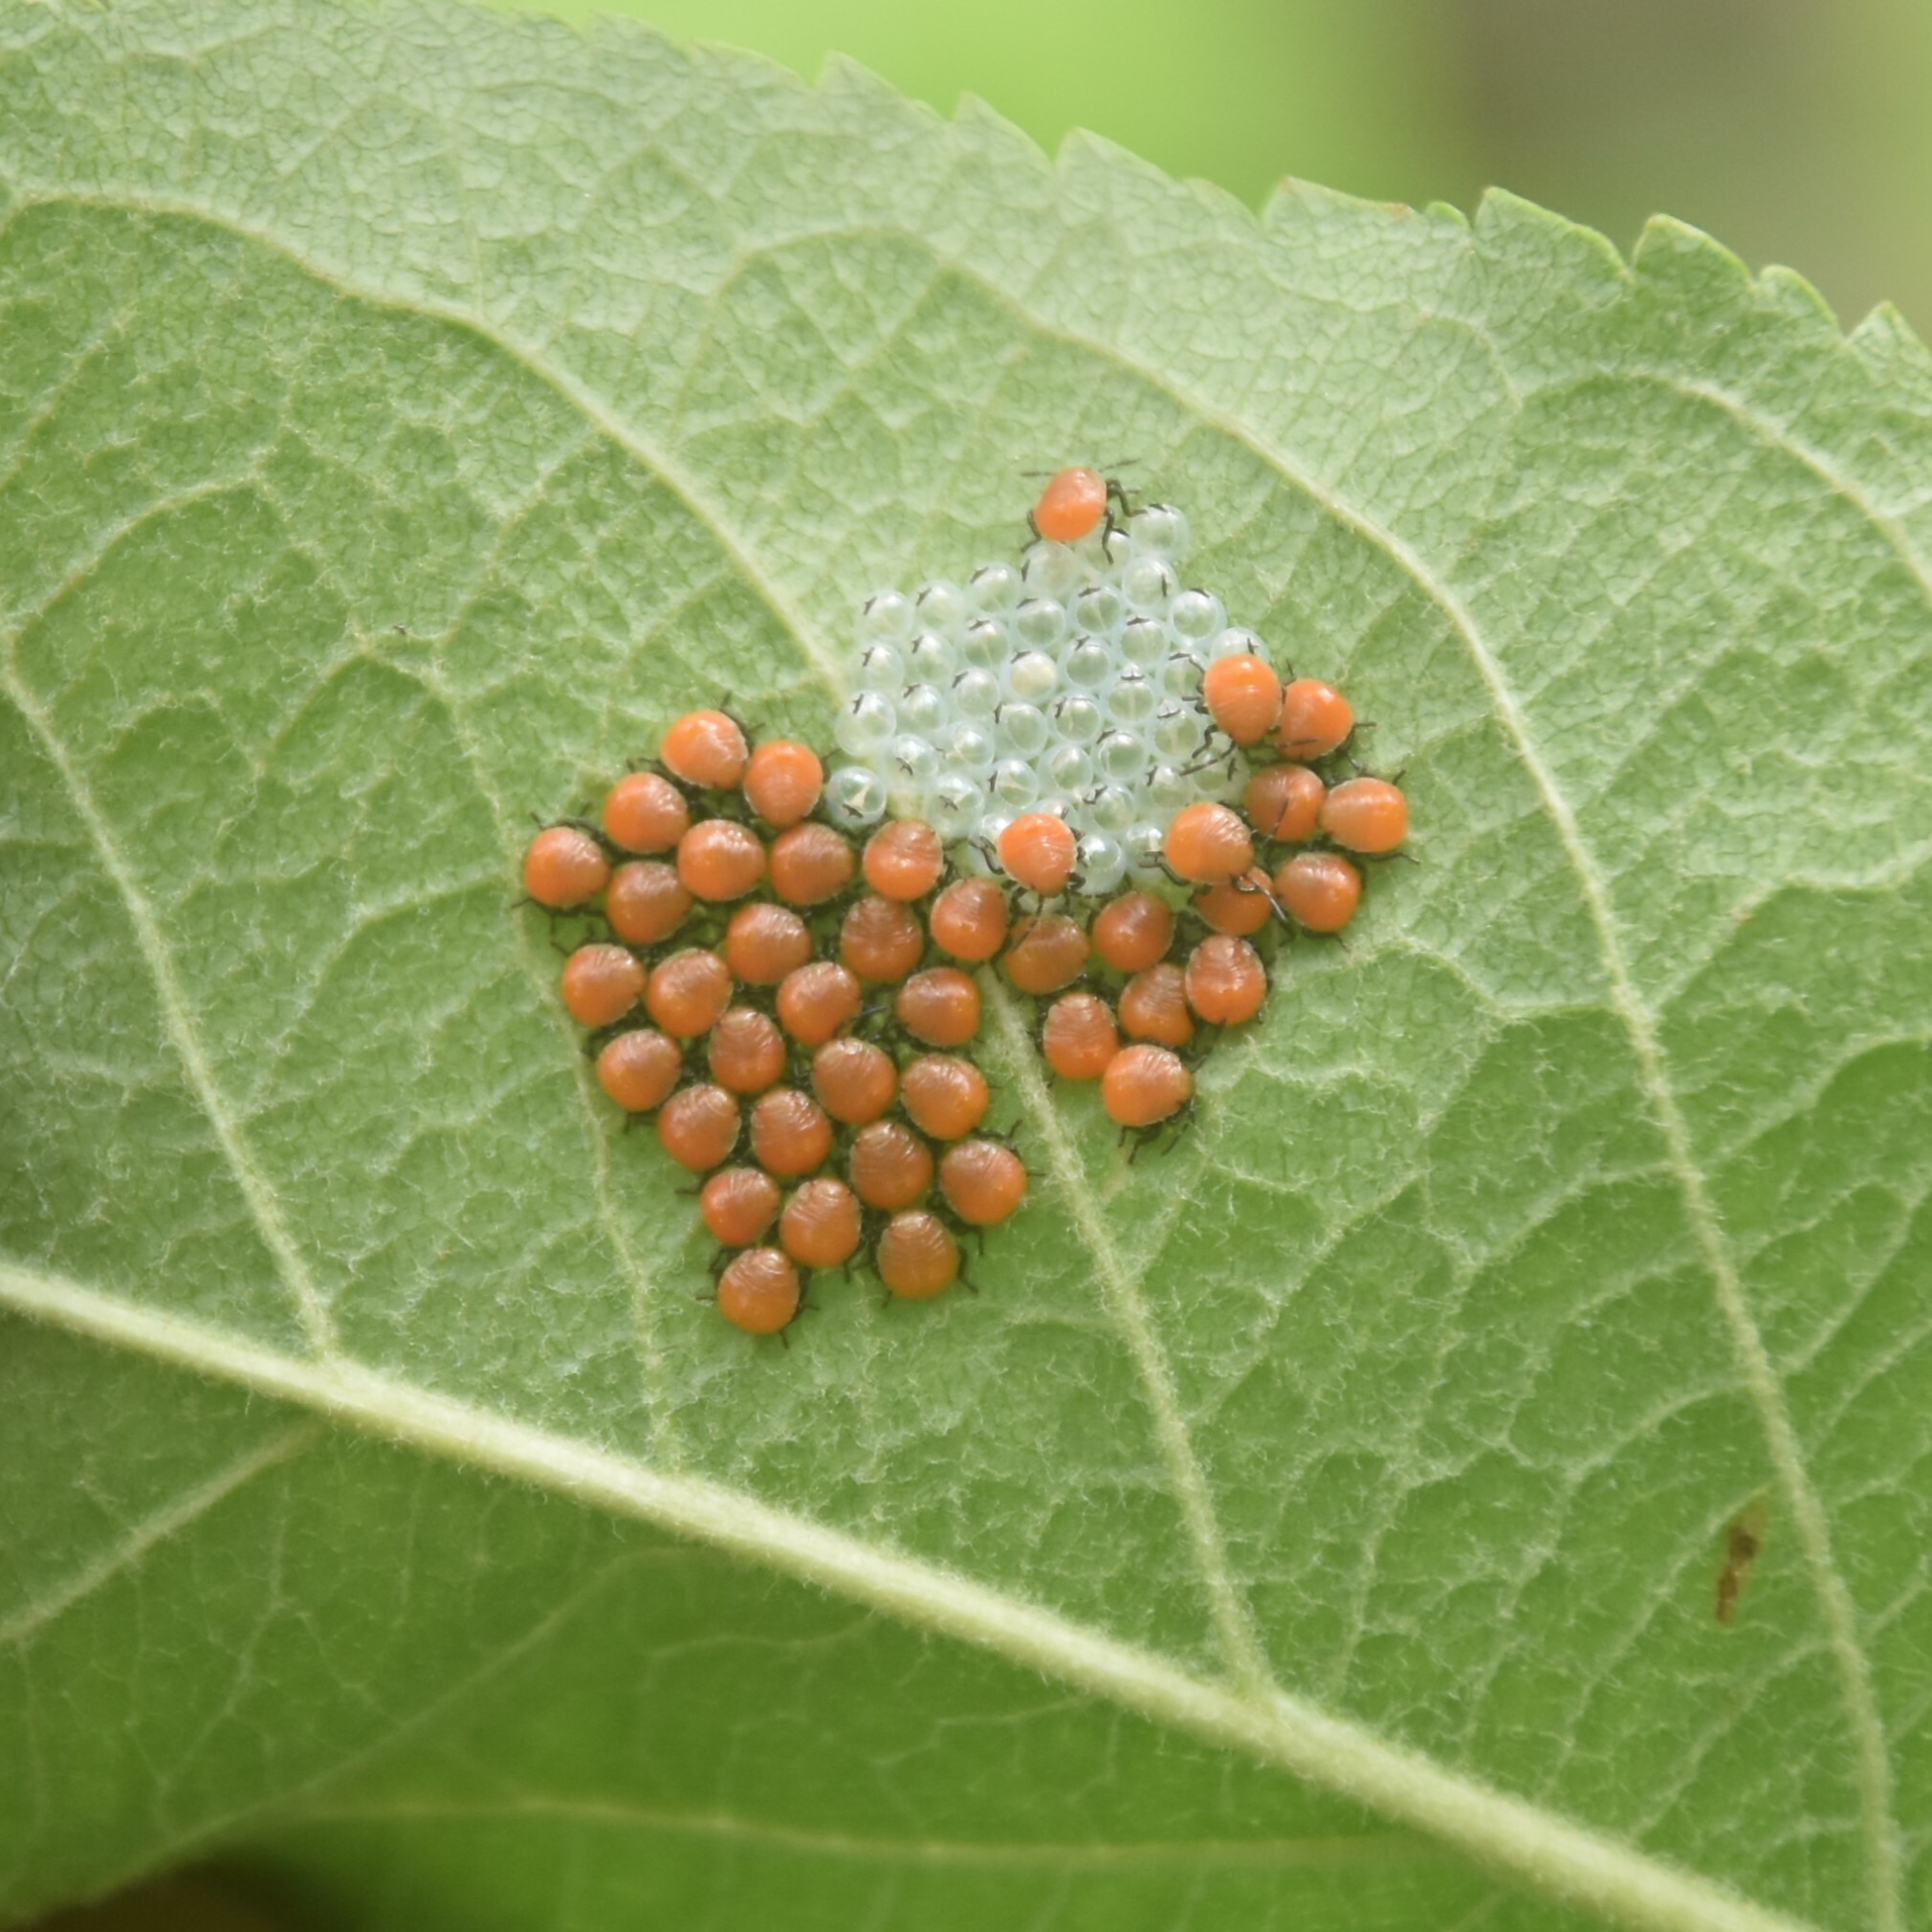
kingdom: Animalia
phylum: Arthropoda
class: Insecta
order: Hemiptera
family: Pentatomidae
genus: Lelia
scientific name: Lelia octopunctata
